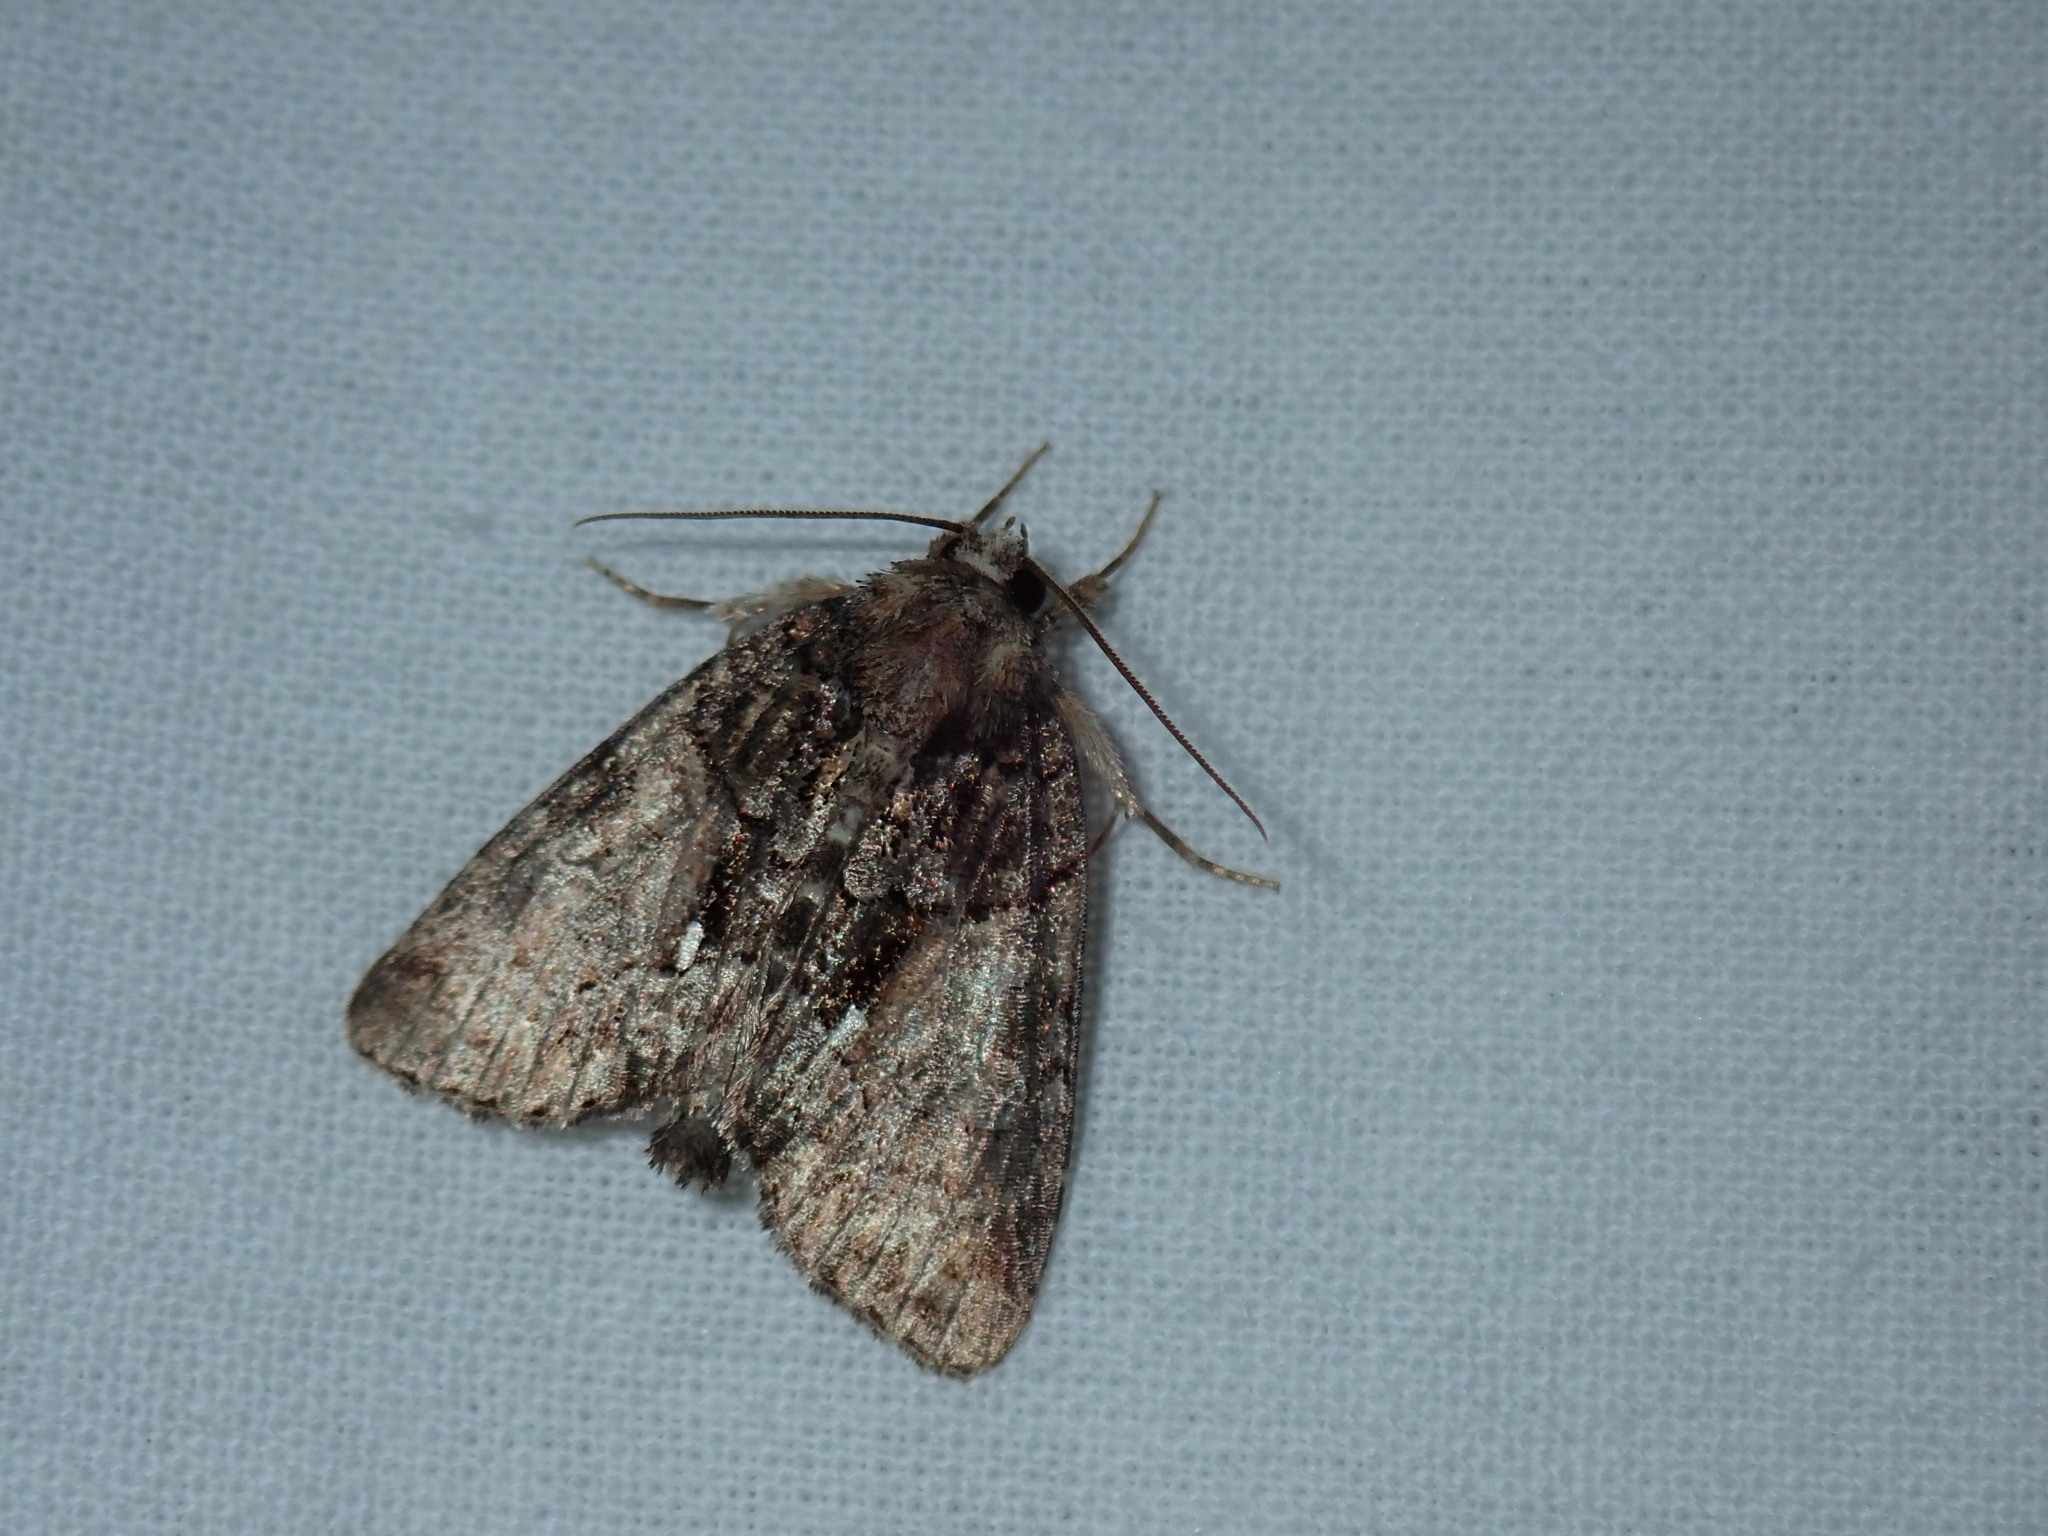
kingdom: Animalia
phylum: Arthropoda
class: Insecta
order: Lepidoptera
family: Noctuidae
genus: Chytonix
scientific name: Chytonix palliatricula
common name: Cloaked marvel
